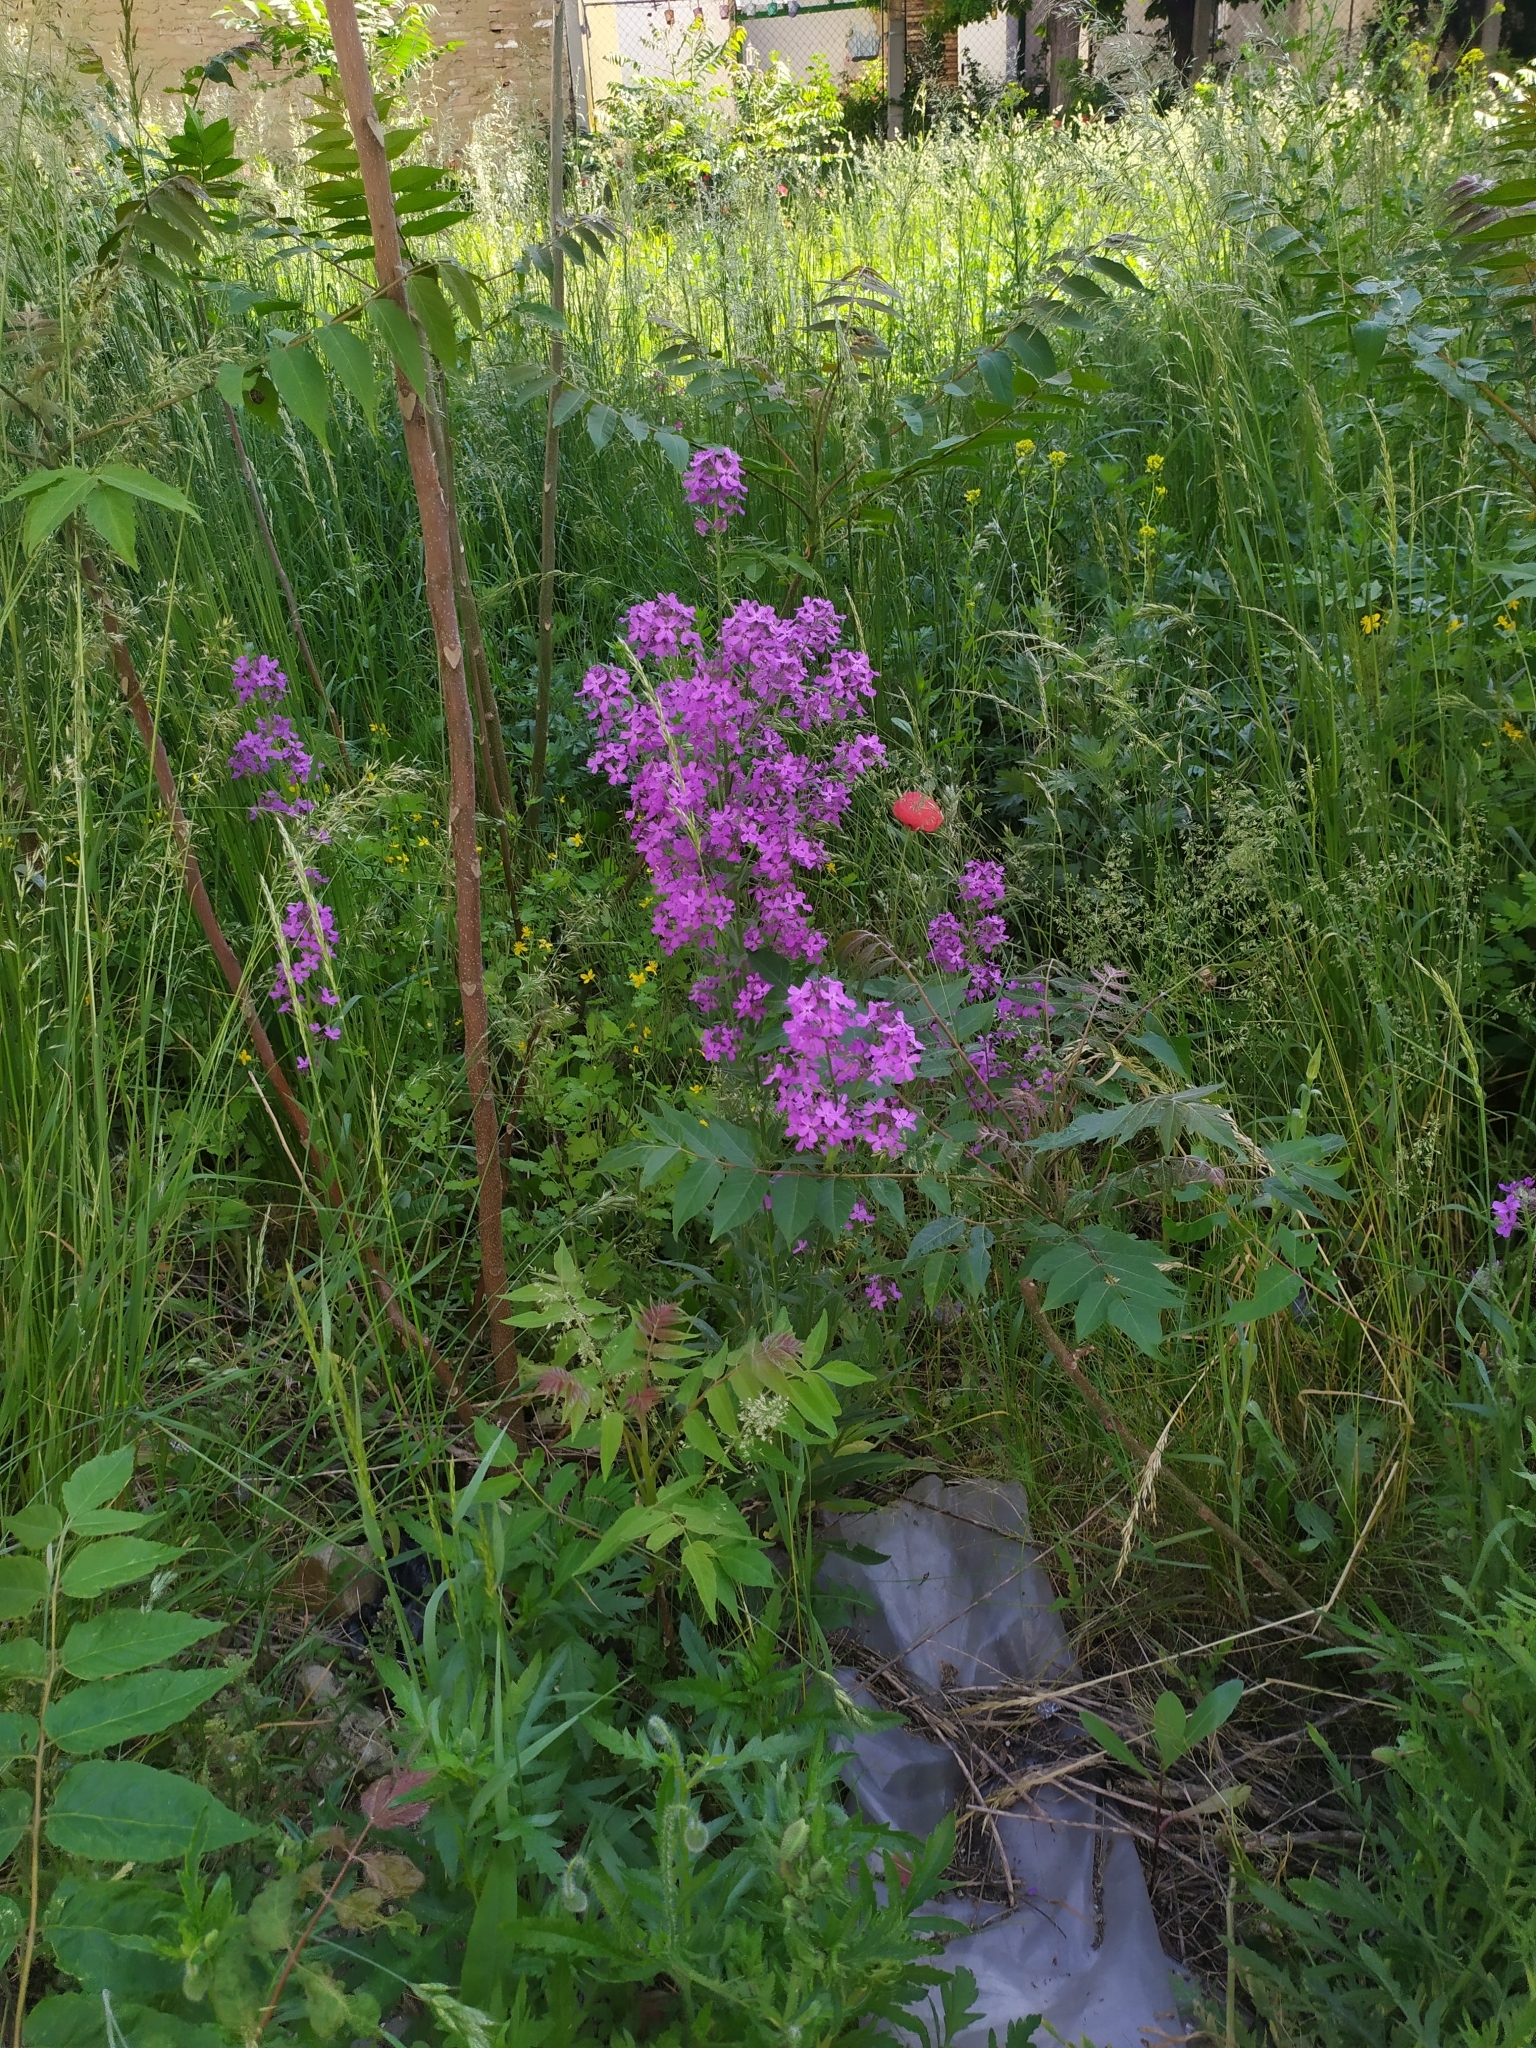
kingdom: Plantae
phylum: Tracheophyta
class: Magnoliopsida
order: Brassicales
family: Brassicaceae
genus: Hesperis
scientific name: Hesperis matronalis
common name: Dame's-violet
